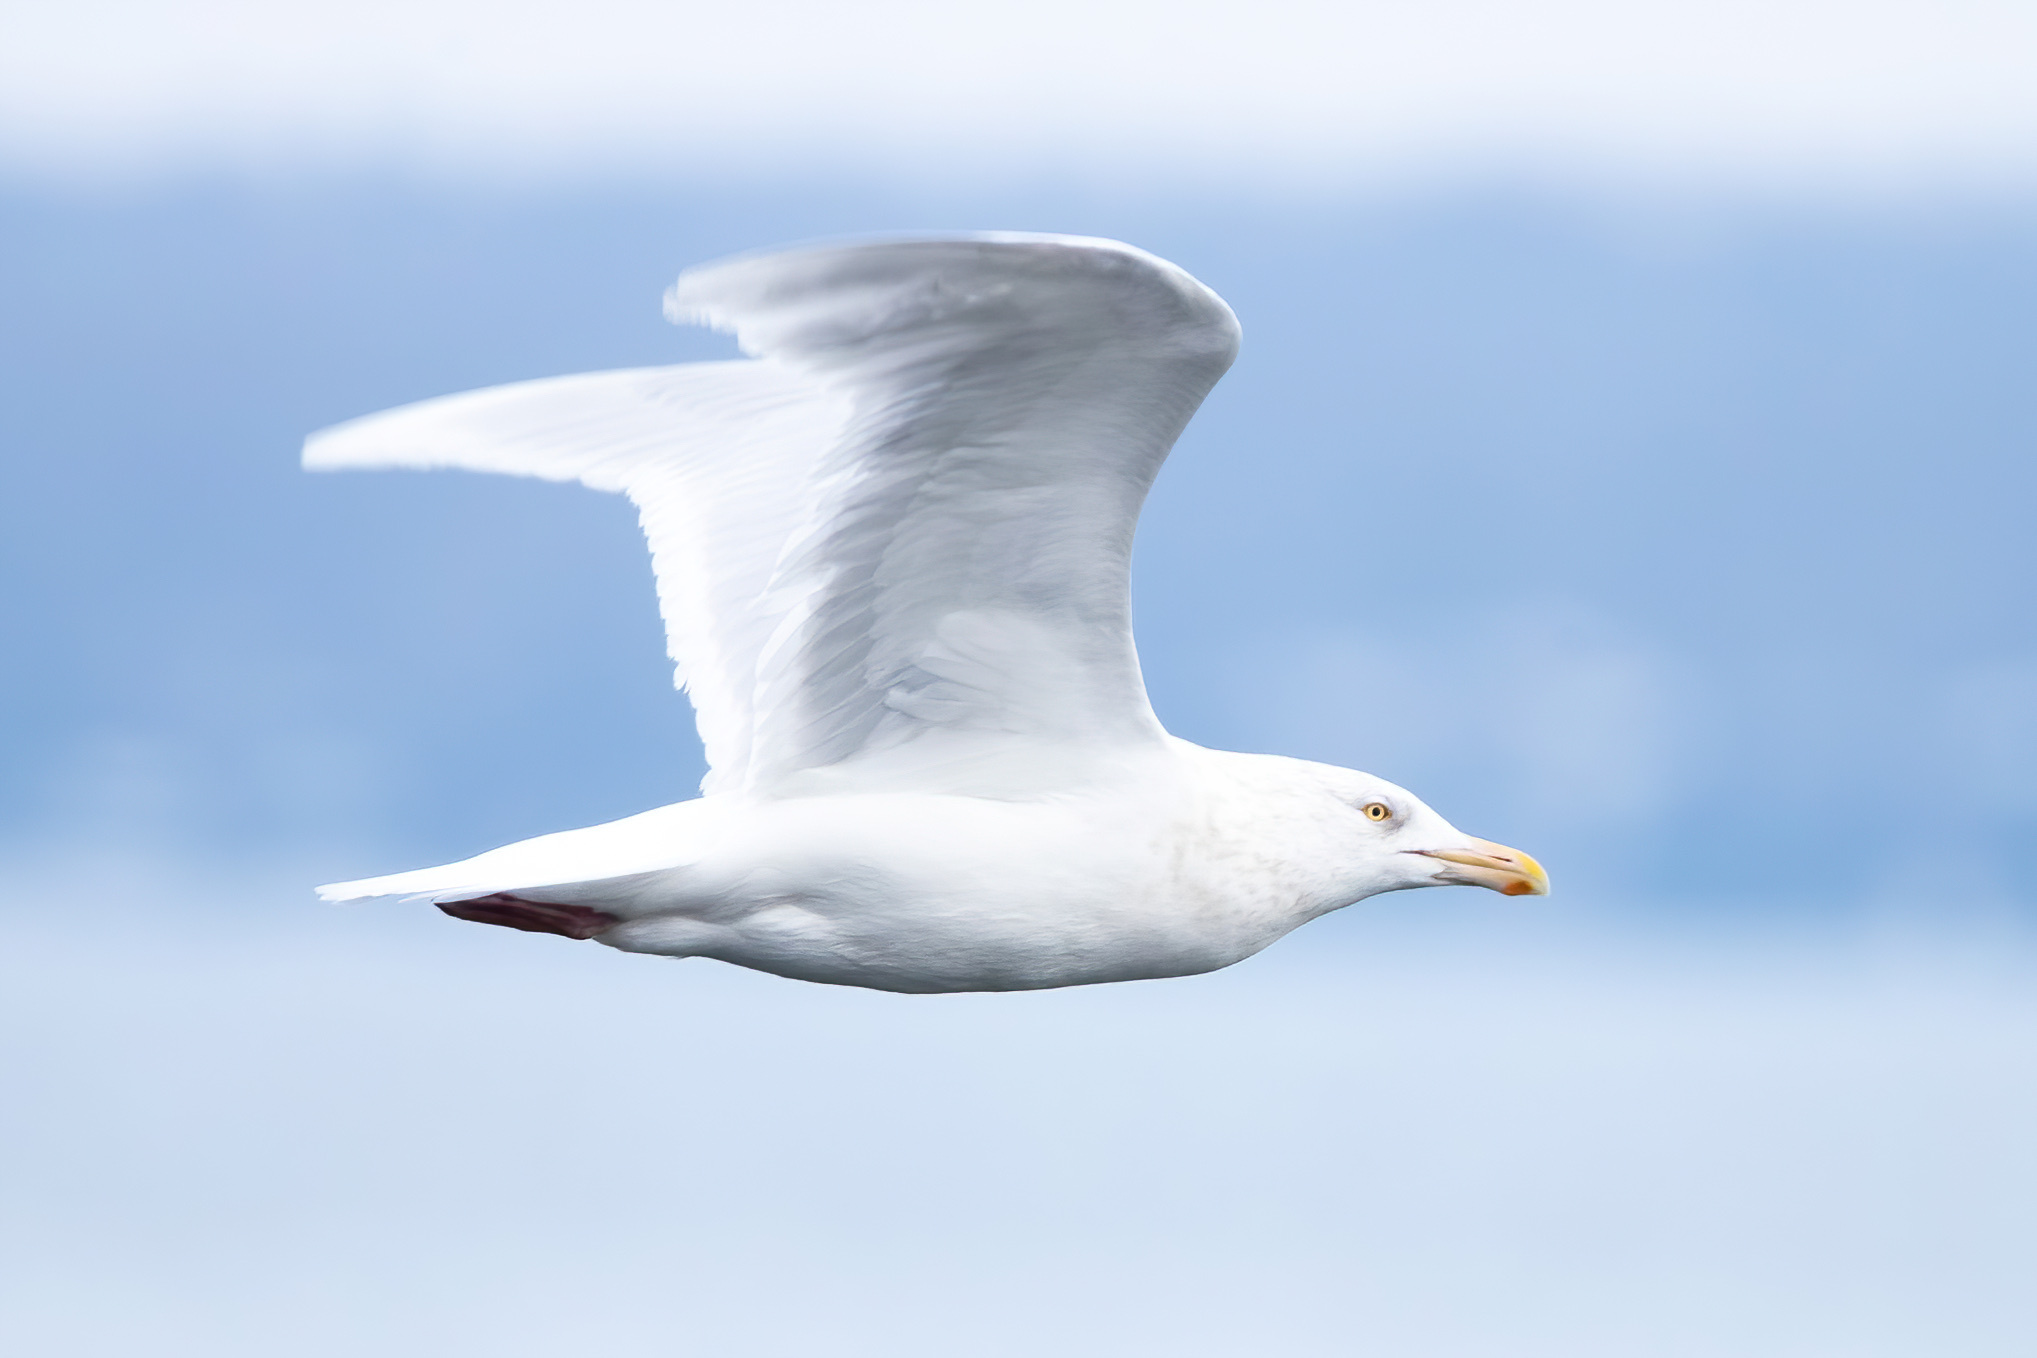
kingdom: Animalia
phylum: Chordata
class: Aves
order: Charadriiformes
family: Laridae
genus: Larus
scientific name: Larus hyperboreus
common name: Glaucous gull
